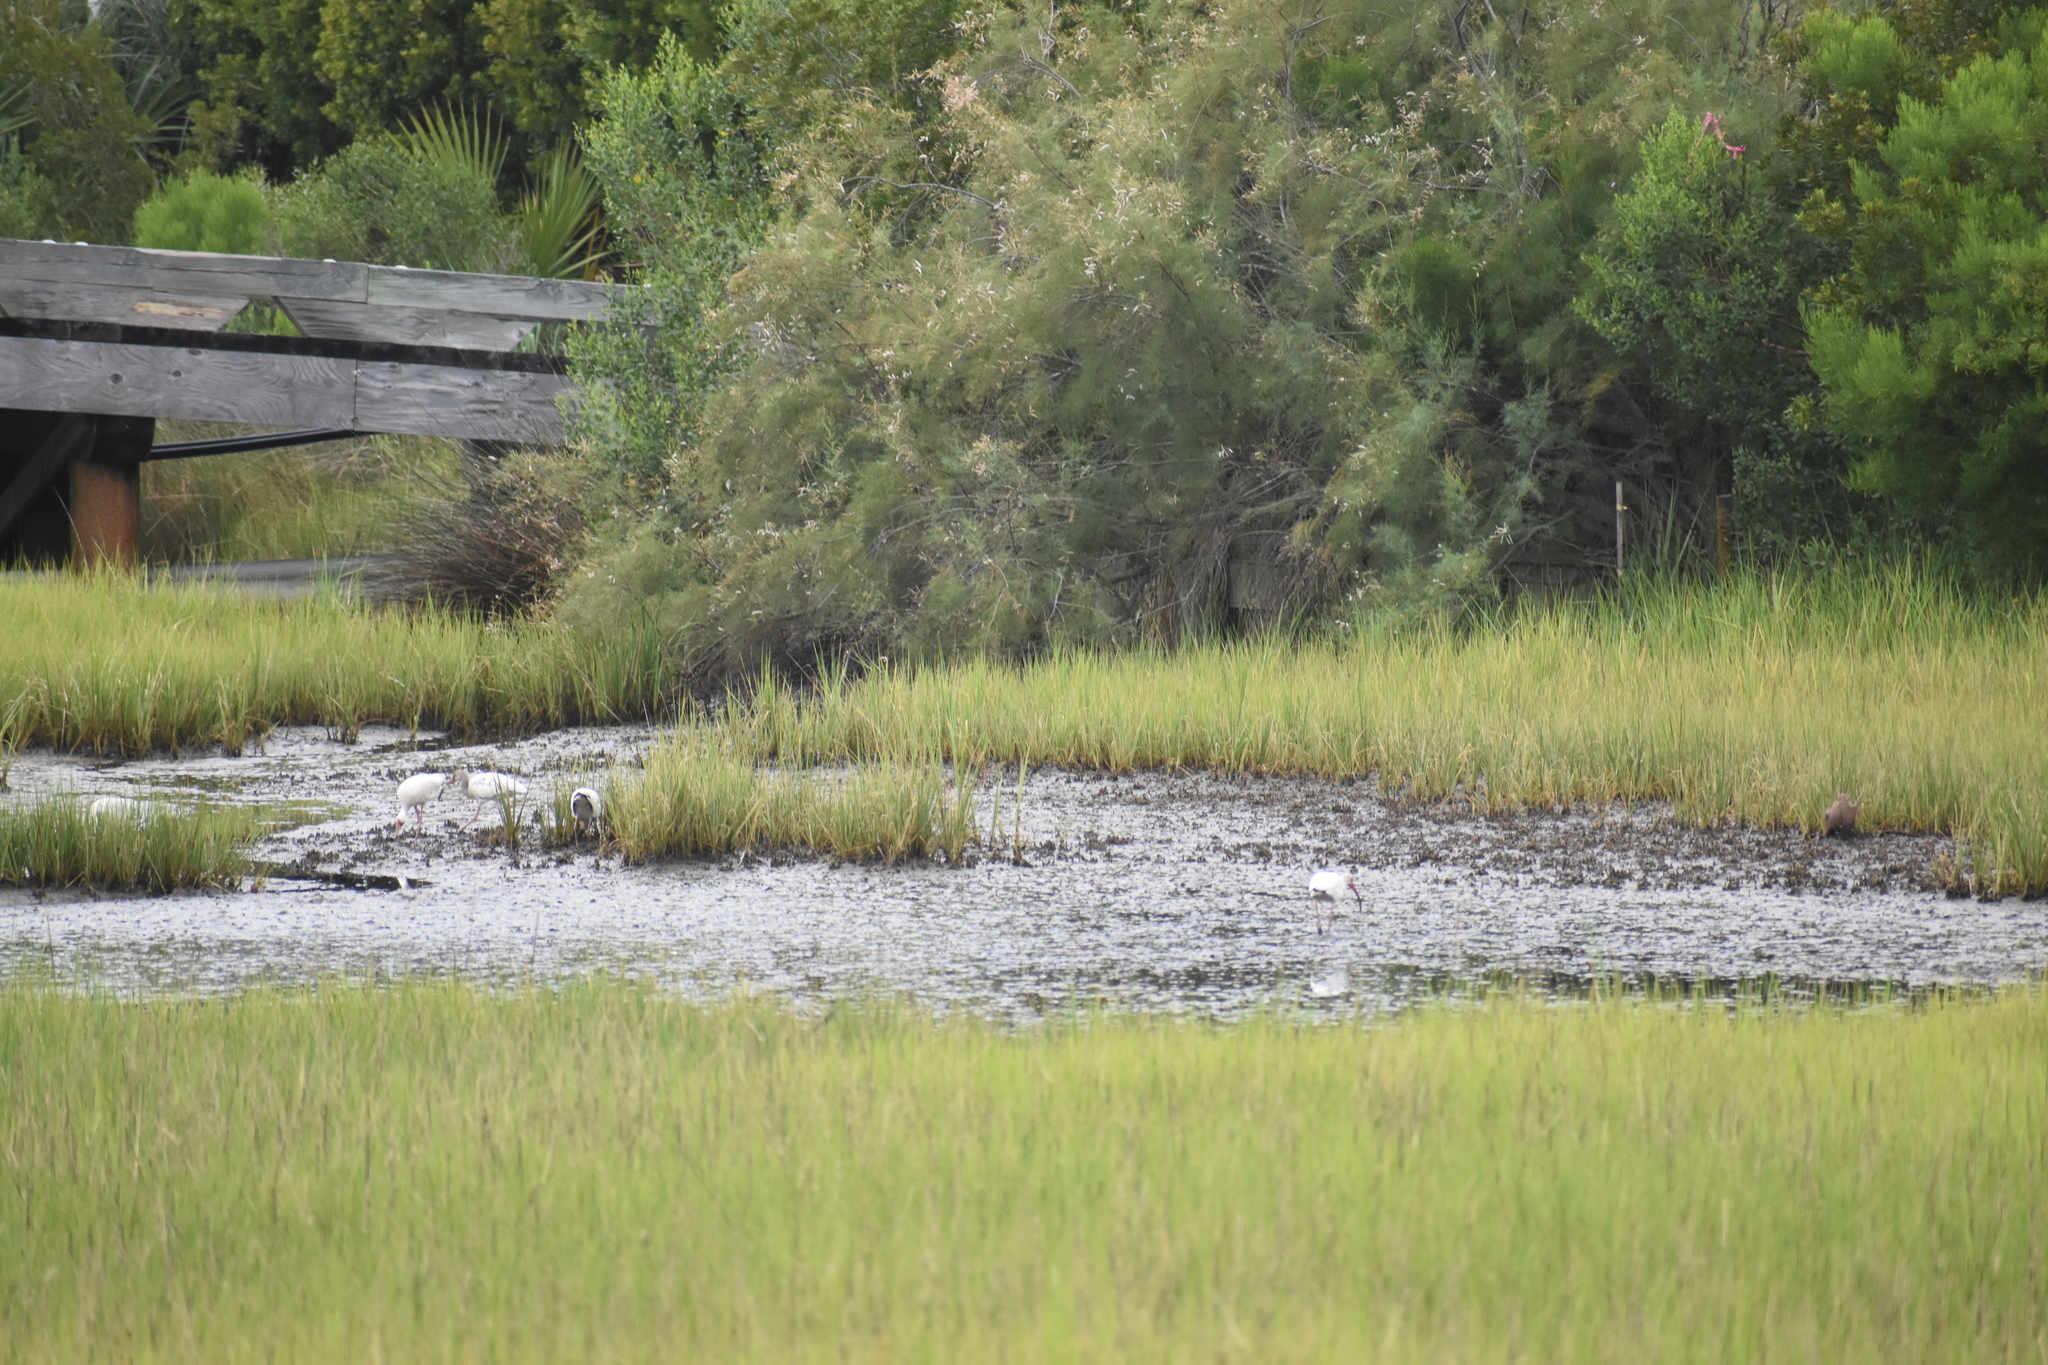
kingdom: Animalia
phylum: Chordata
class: Aves
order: Pelecaniformes
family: Threskiornithidae
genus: Eudocimus
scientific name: Eudocimus albus
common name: White ibis
